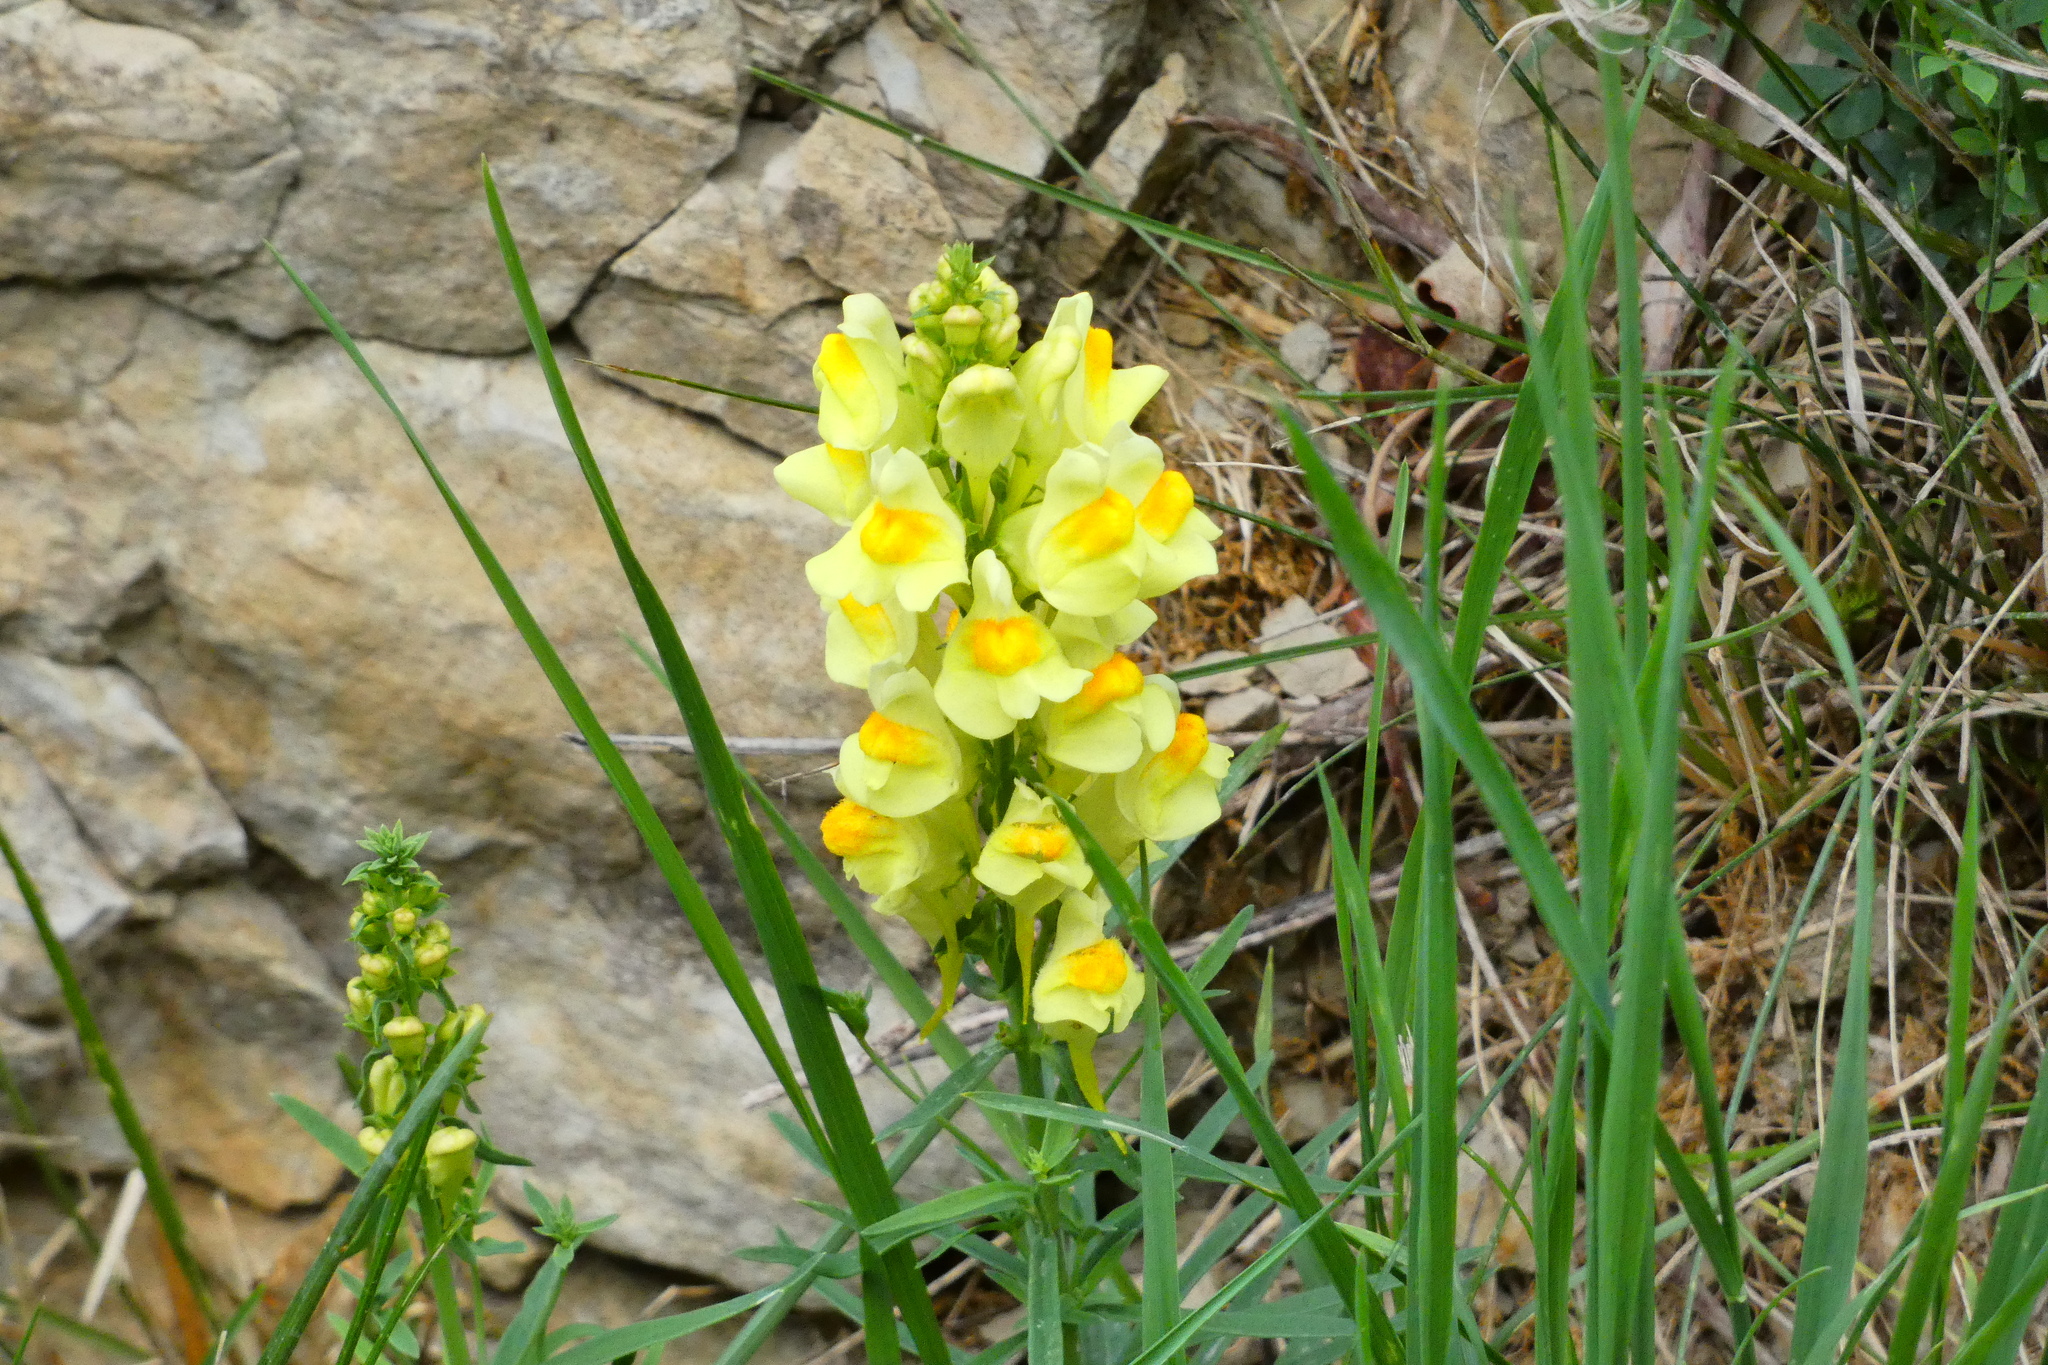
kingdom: Plantae
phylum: Tracheophyta
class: Magnoliopsida
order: Lamiales
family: Plantaginaceae
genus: Linaria
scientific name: Linaria vulgaris
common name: Butter and eggs
